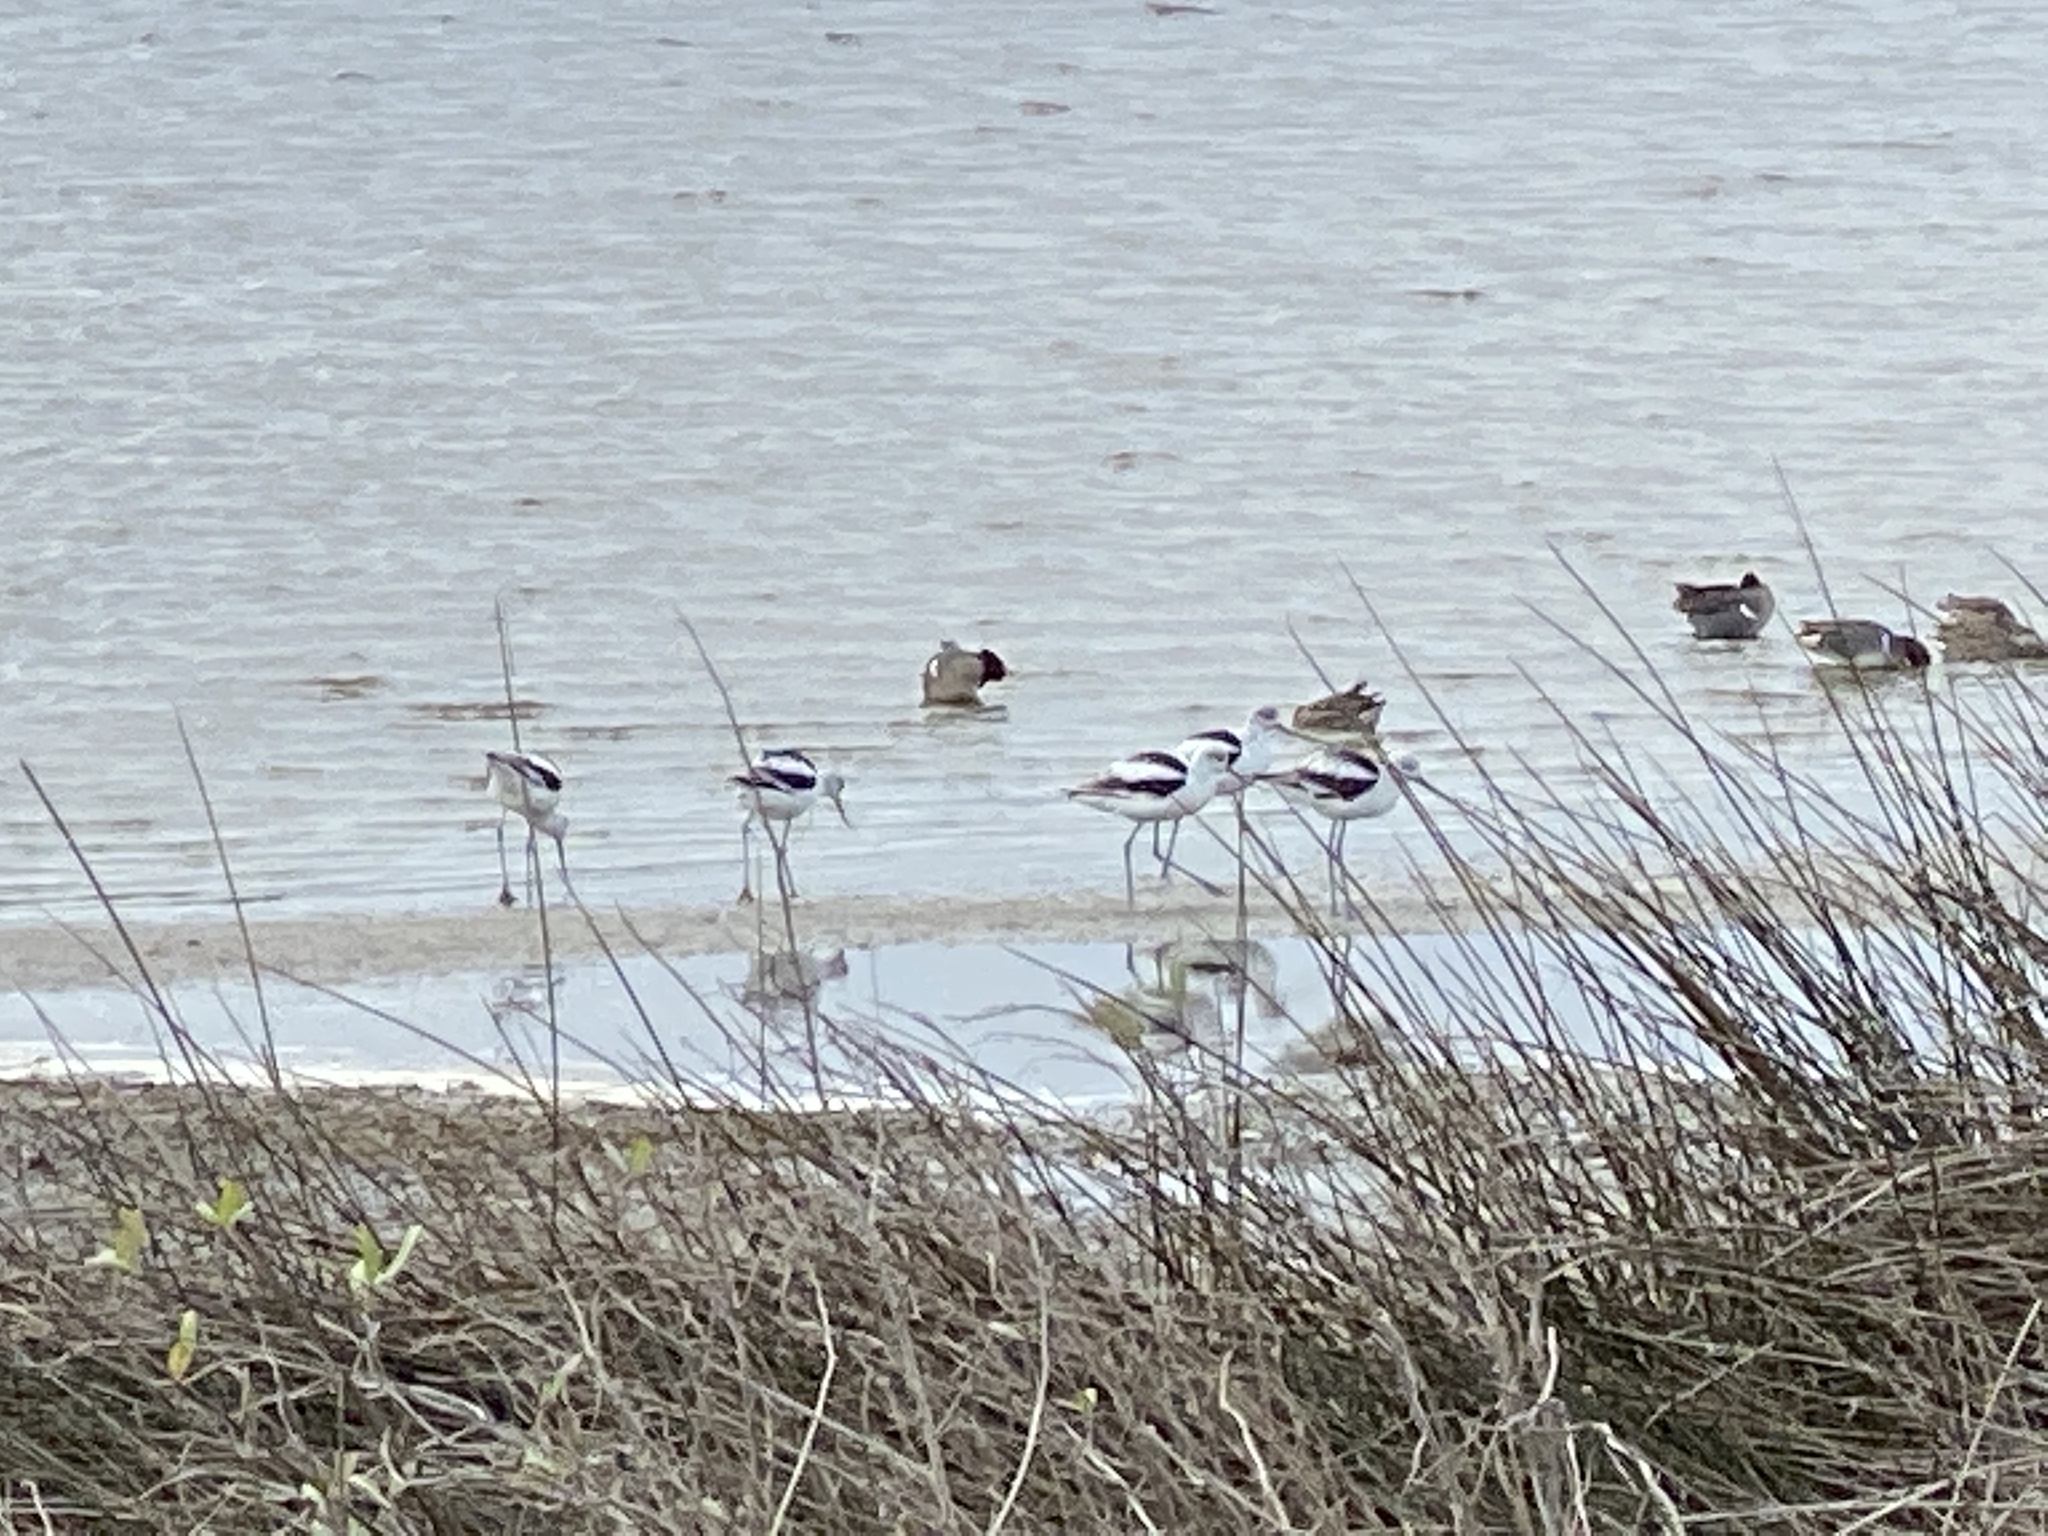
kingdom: Animalia
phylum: Chordata
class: Aves
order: Charadriiformes
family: Recurvirostridae
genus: Recurvirostra
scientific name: Recurvirostra americana
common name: American avocet
